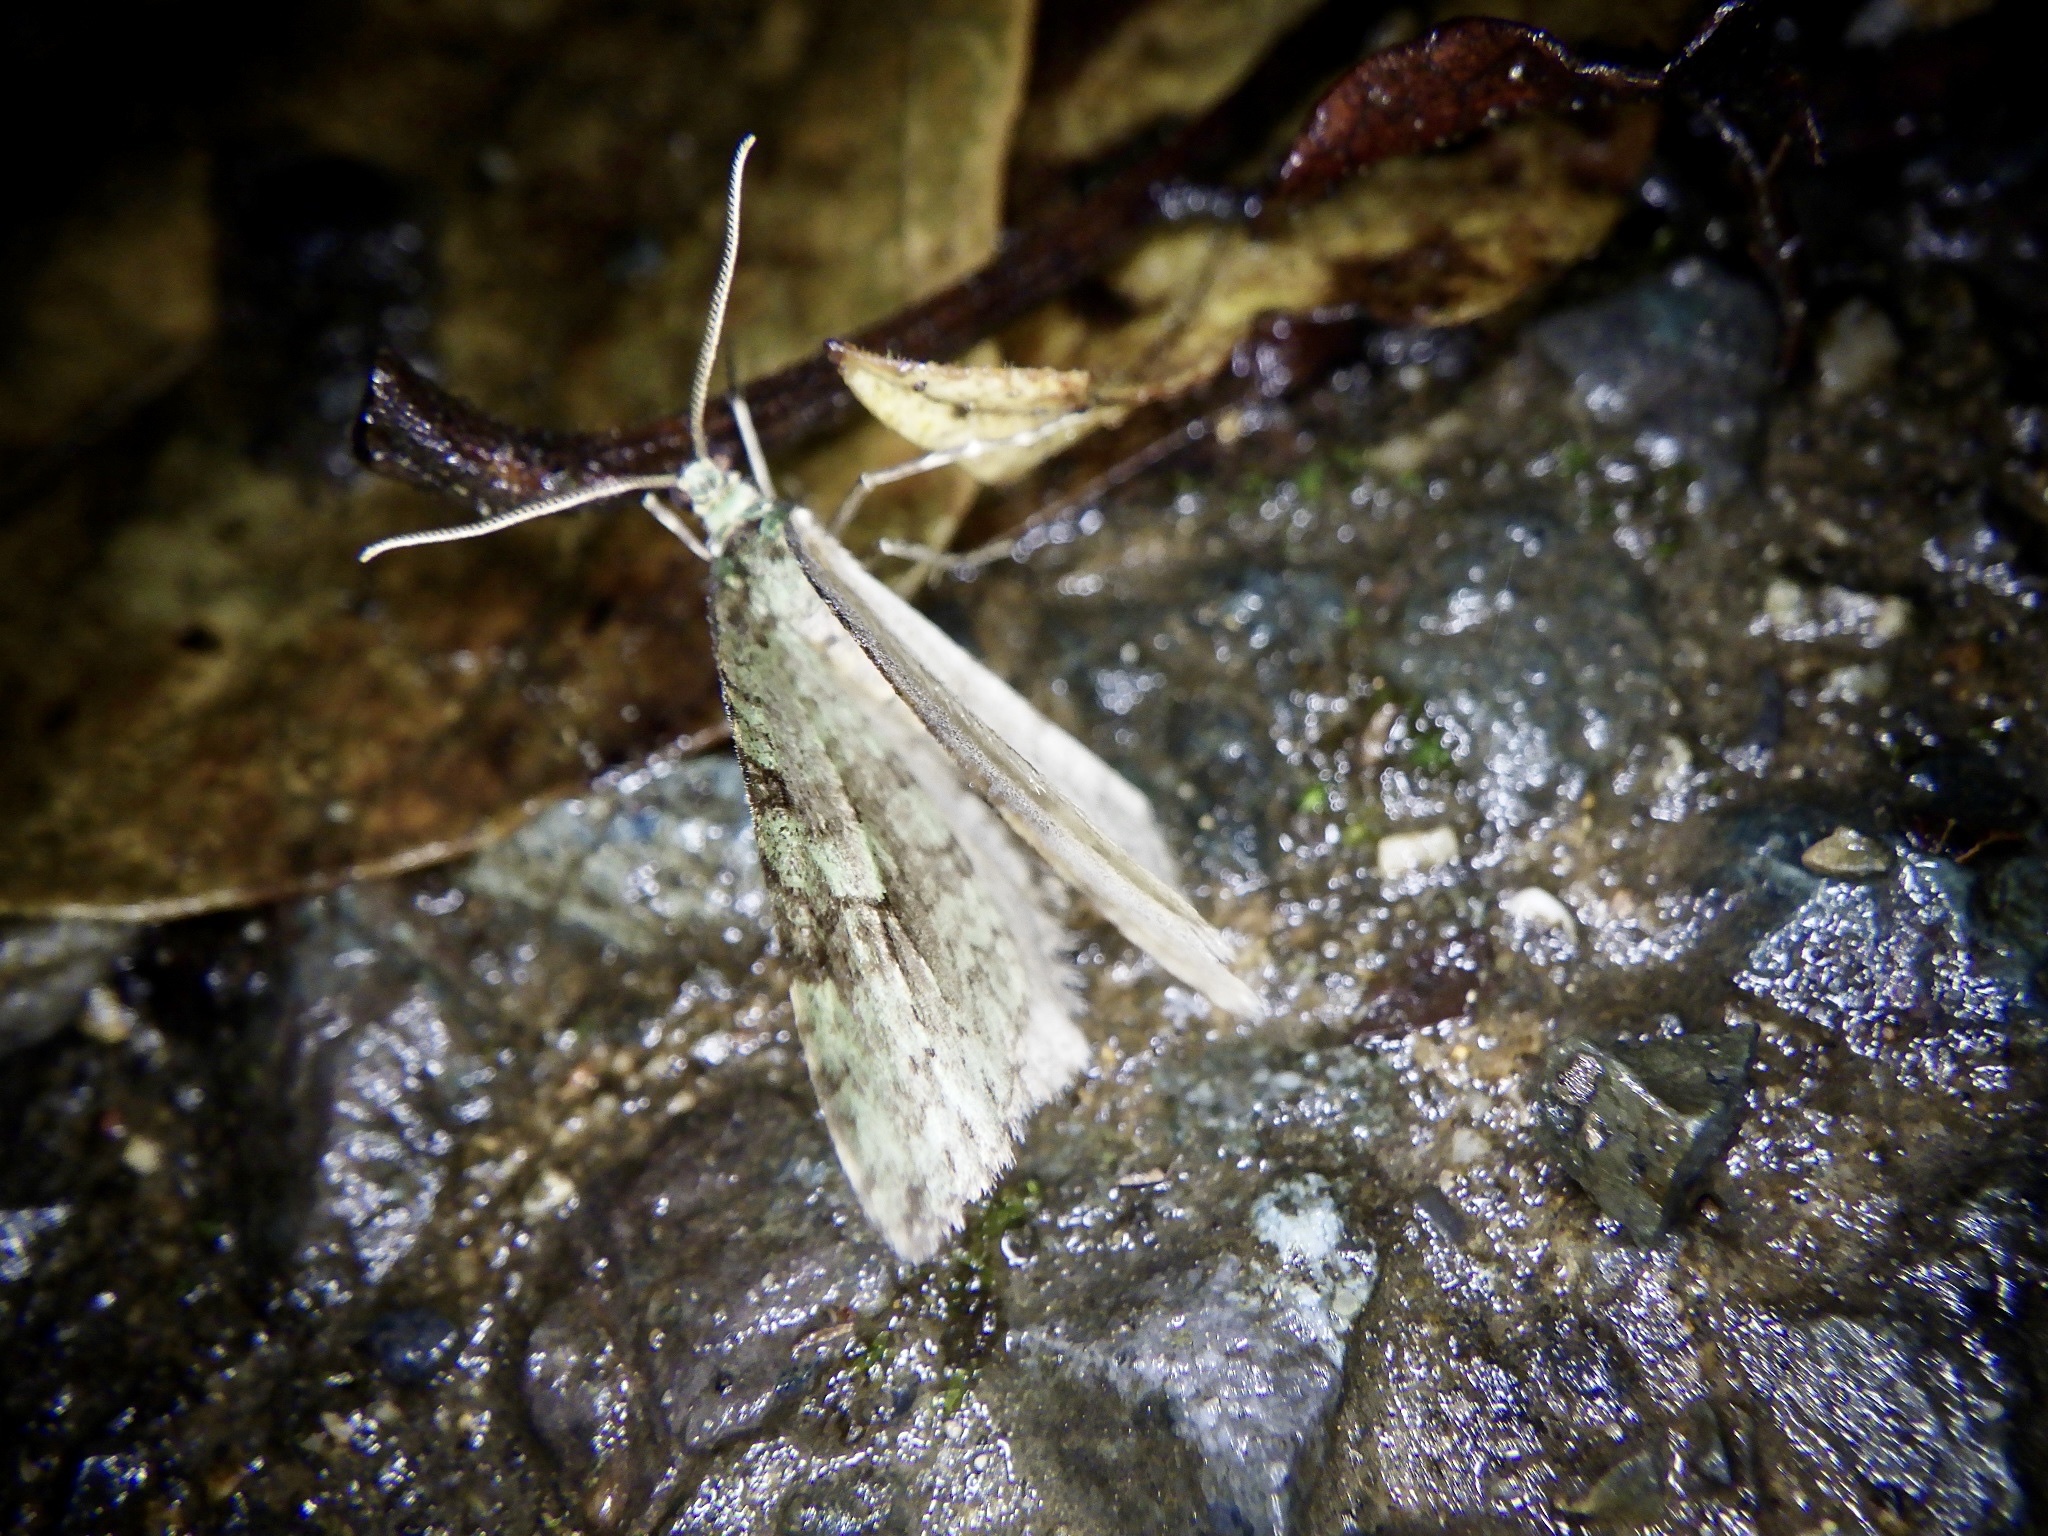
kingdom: Animalia
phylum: Arthropoda
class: Insecta
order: Lepidoptera
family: Geometridae
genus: Epirrita
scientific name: Epirrita viridipurpurescens
